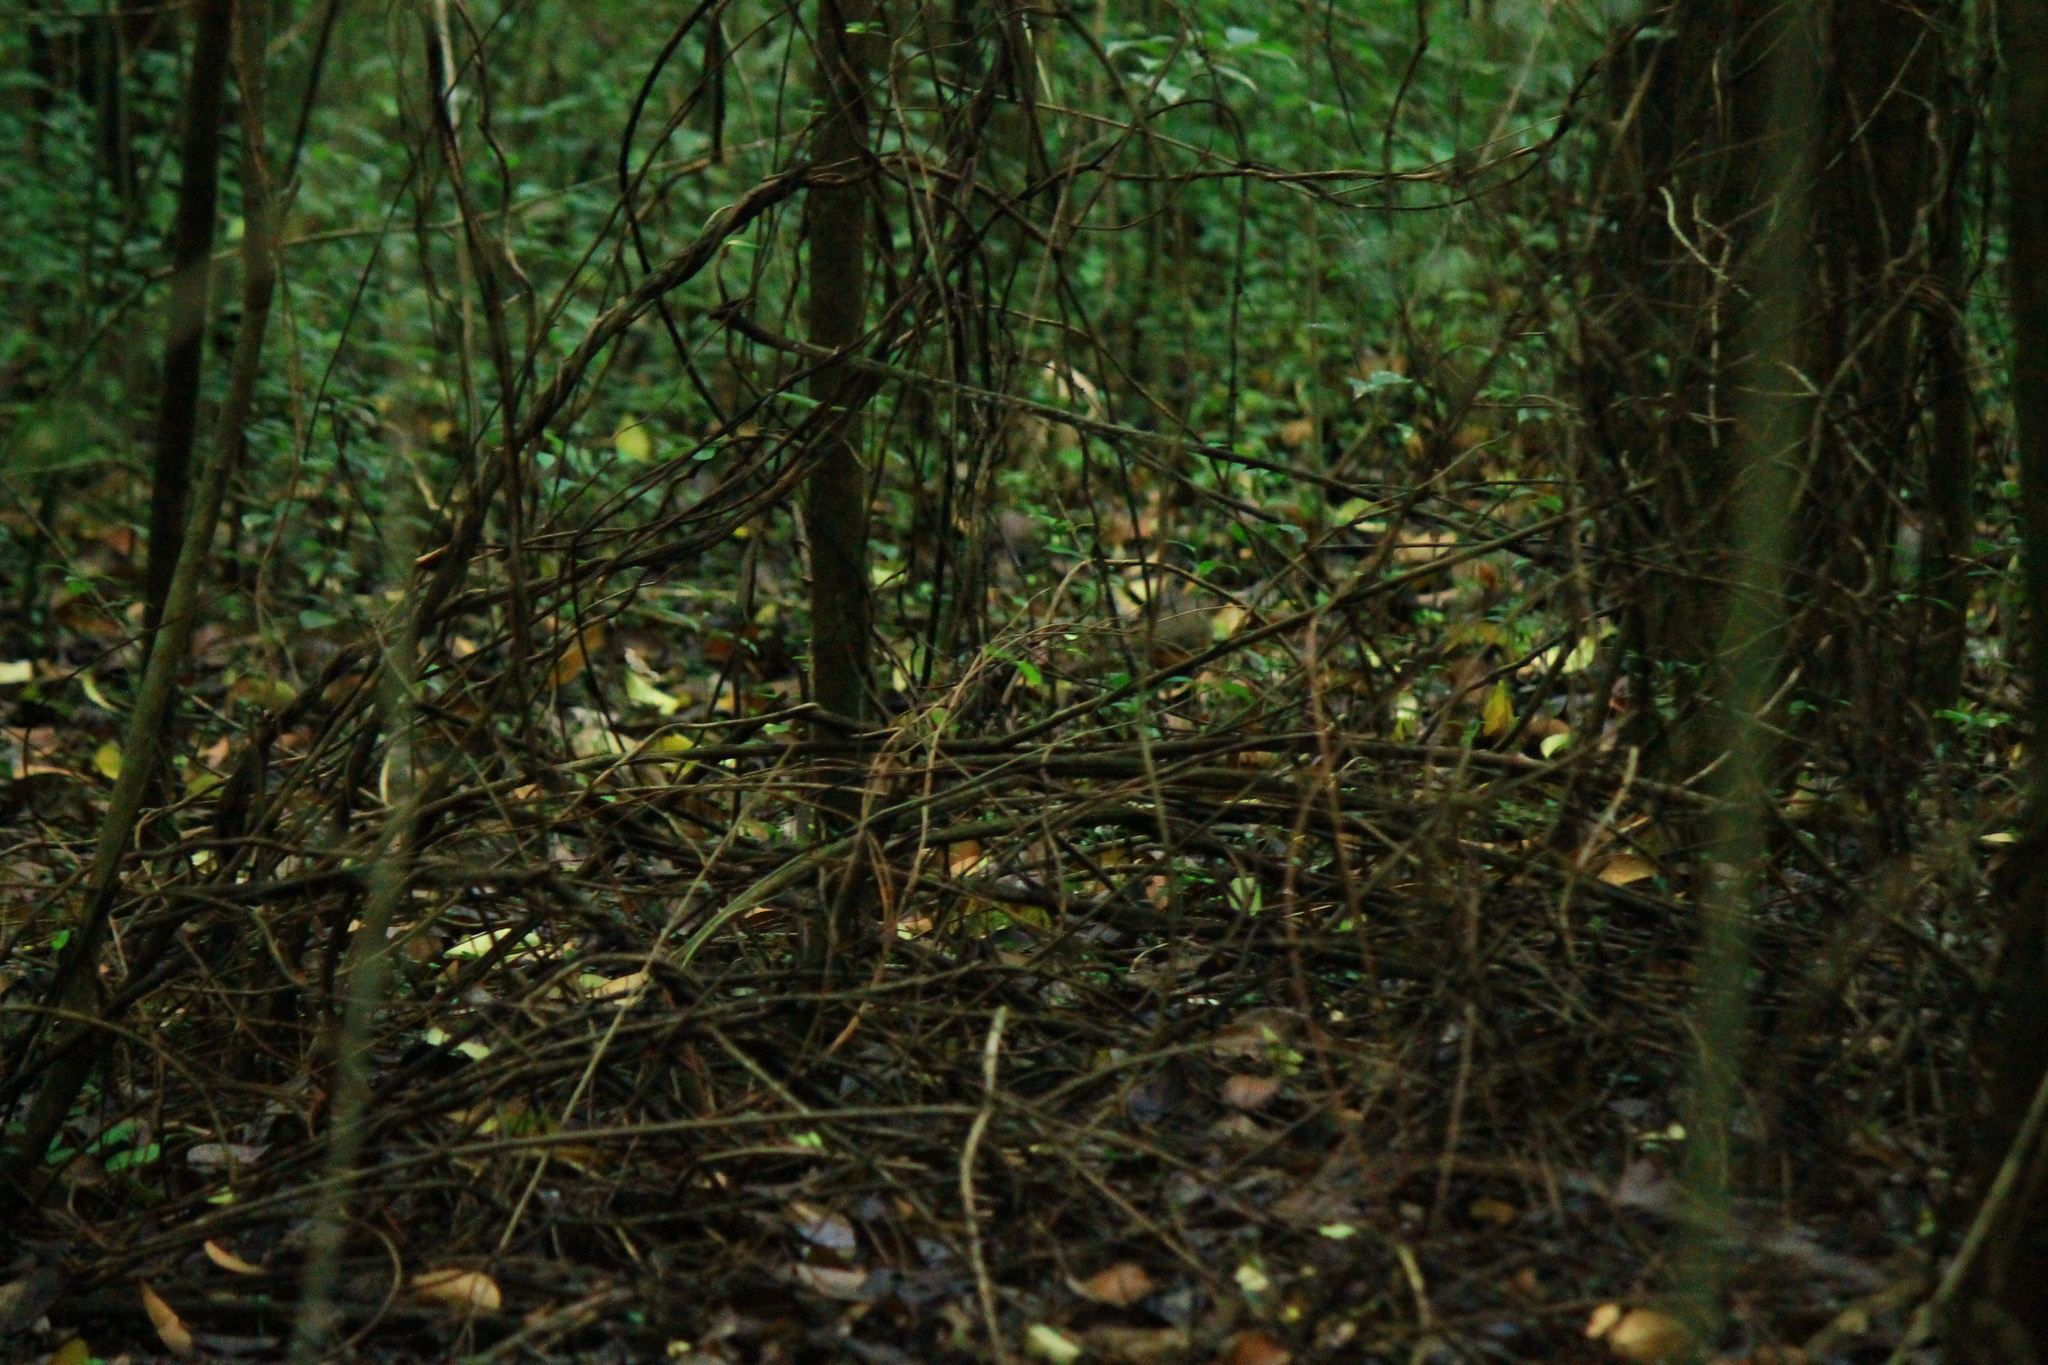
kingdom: Animalia
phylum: Chordata
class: Aves
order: Passeriformes
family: Turdidae
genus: Turdus
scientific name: Turdus rufiventris
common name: Rufous-bellied thrush
